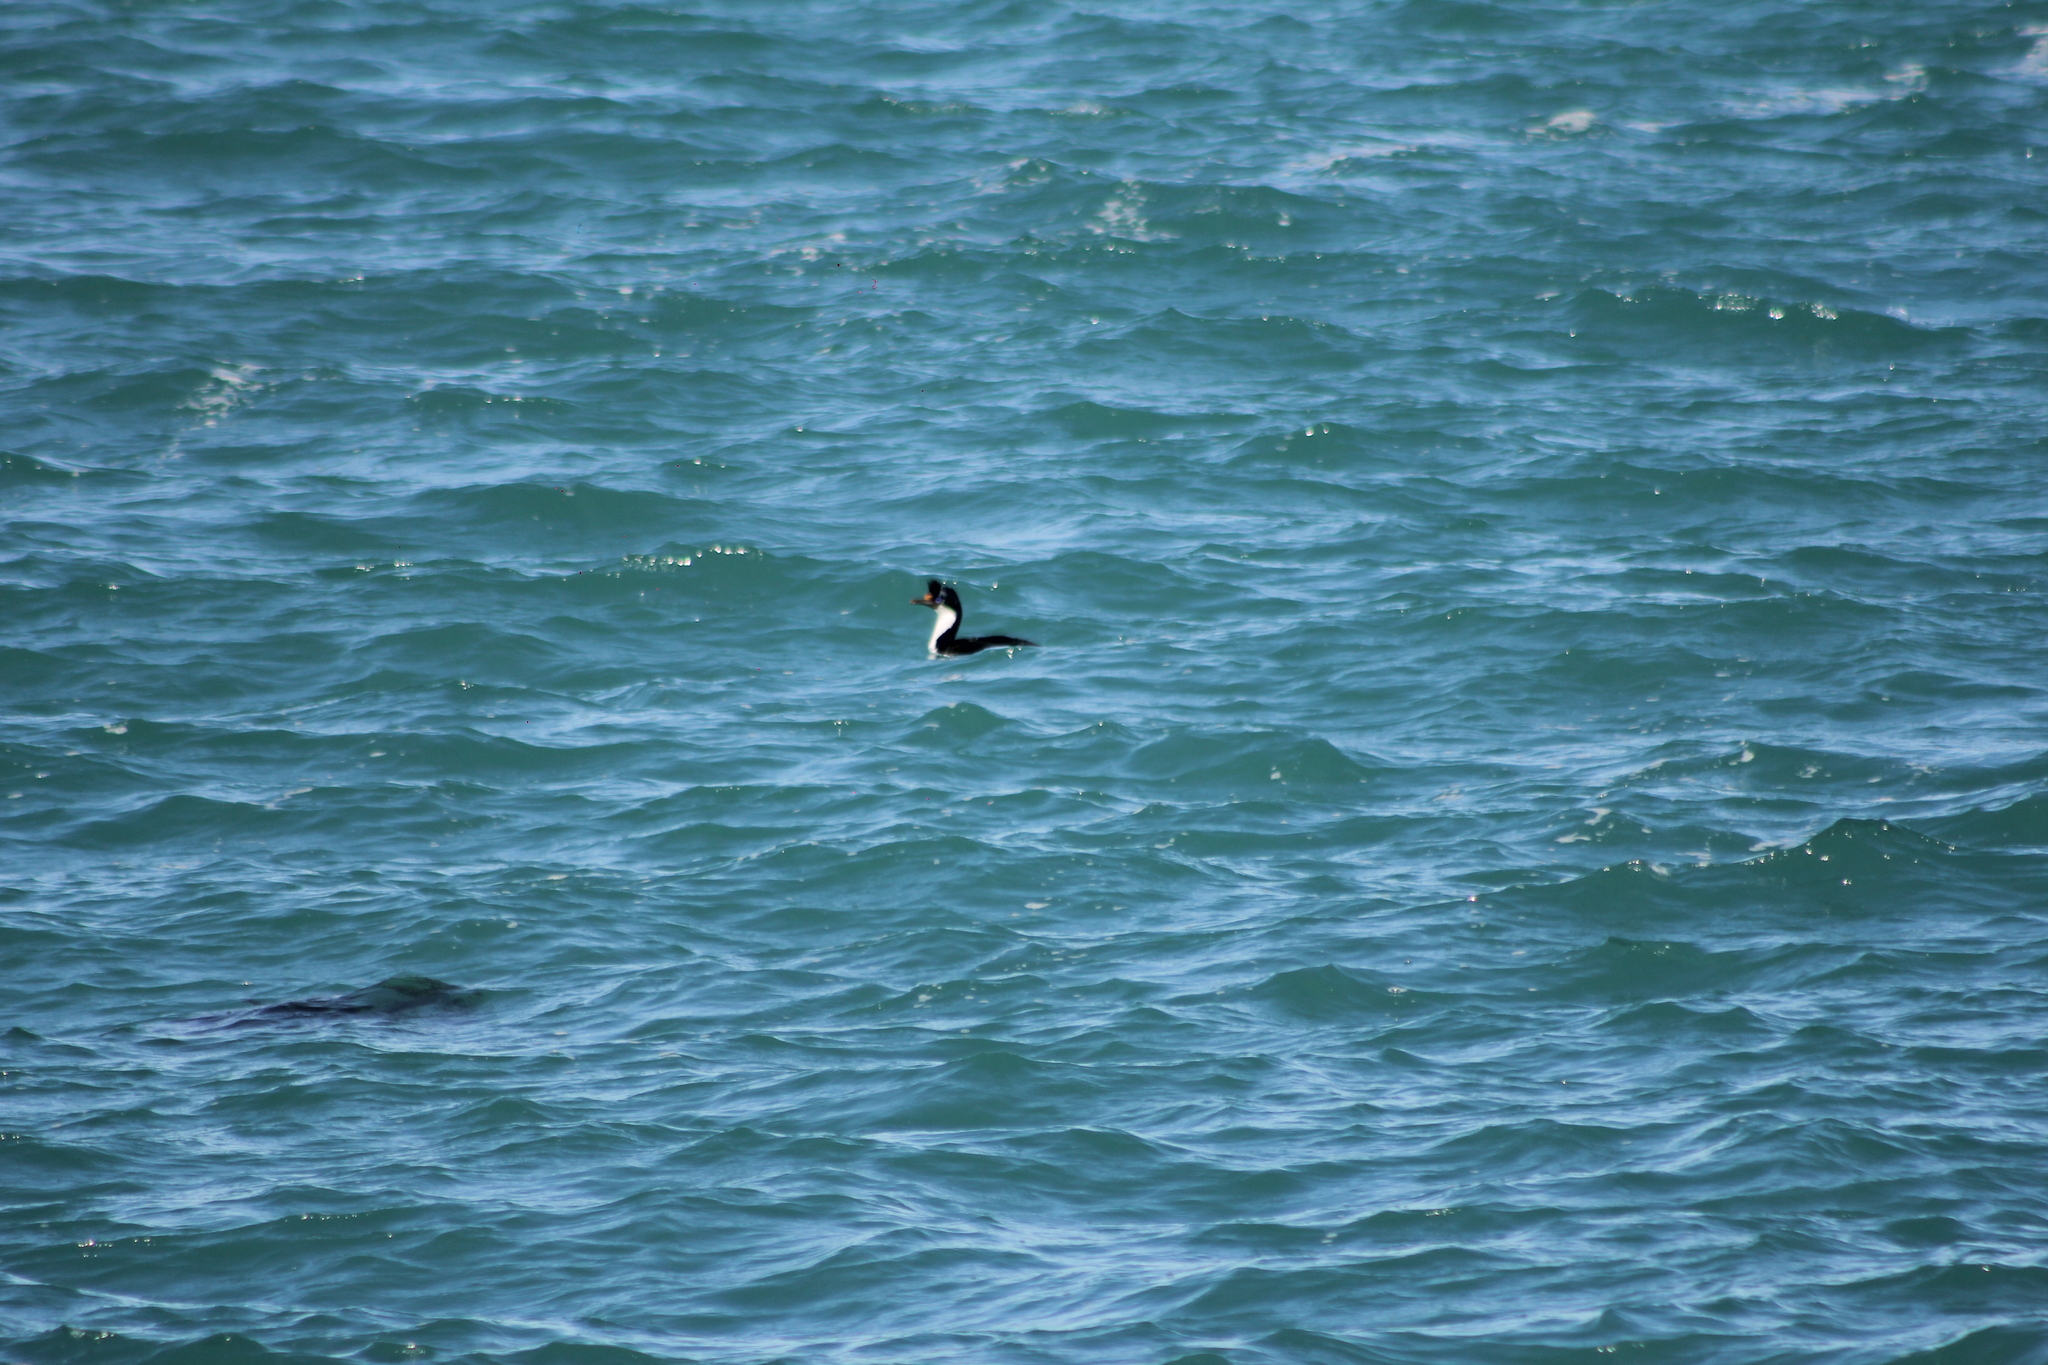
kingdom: Animalia
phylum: Chordata
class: Aves
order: Suliformes
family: Phalacrocoracidae
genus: Leucocarbo
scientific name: Leucocarbo atriceps
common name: Imperial shag
